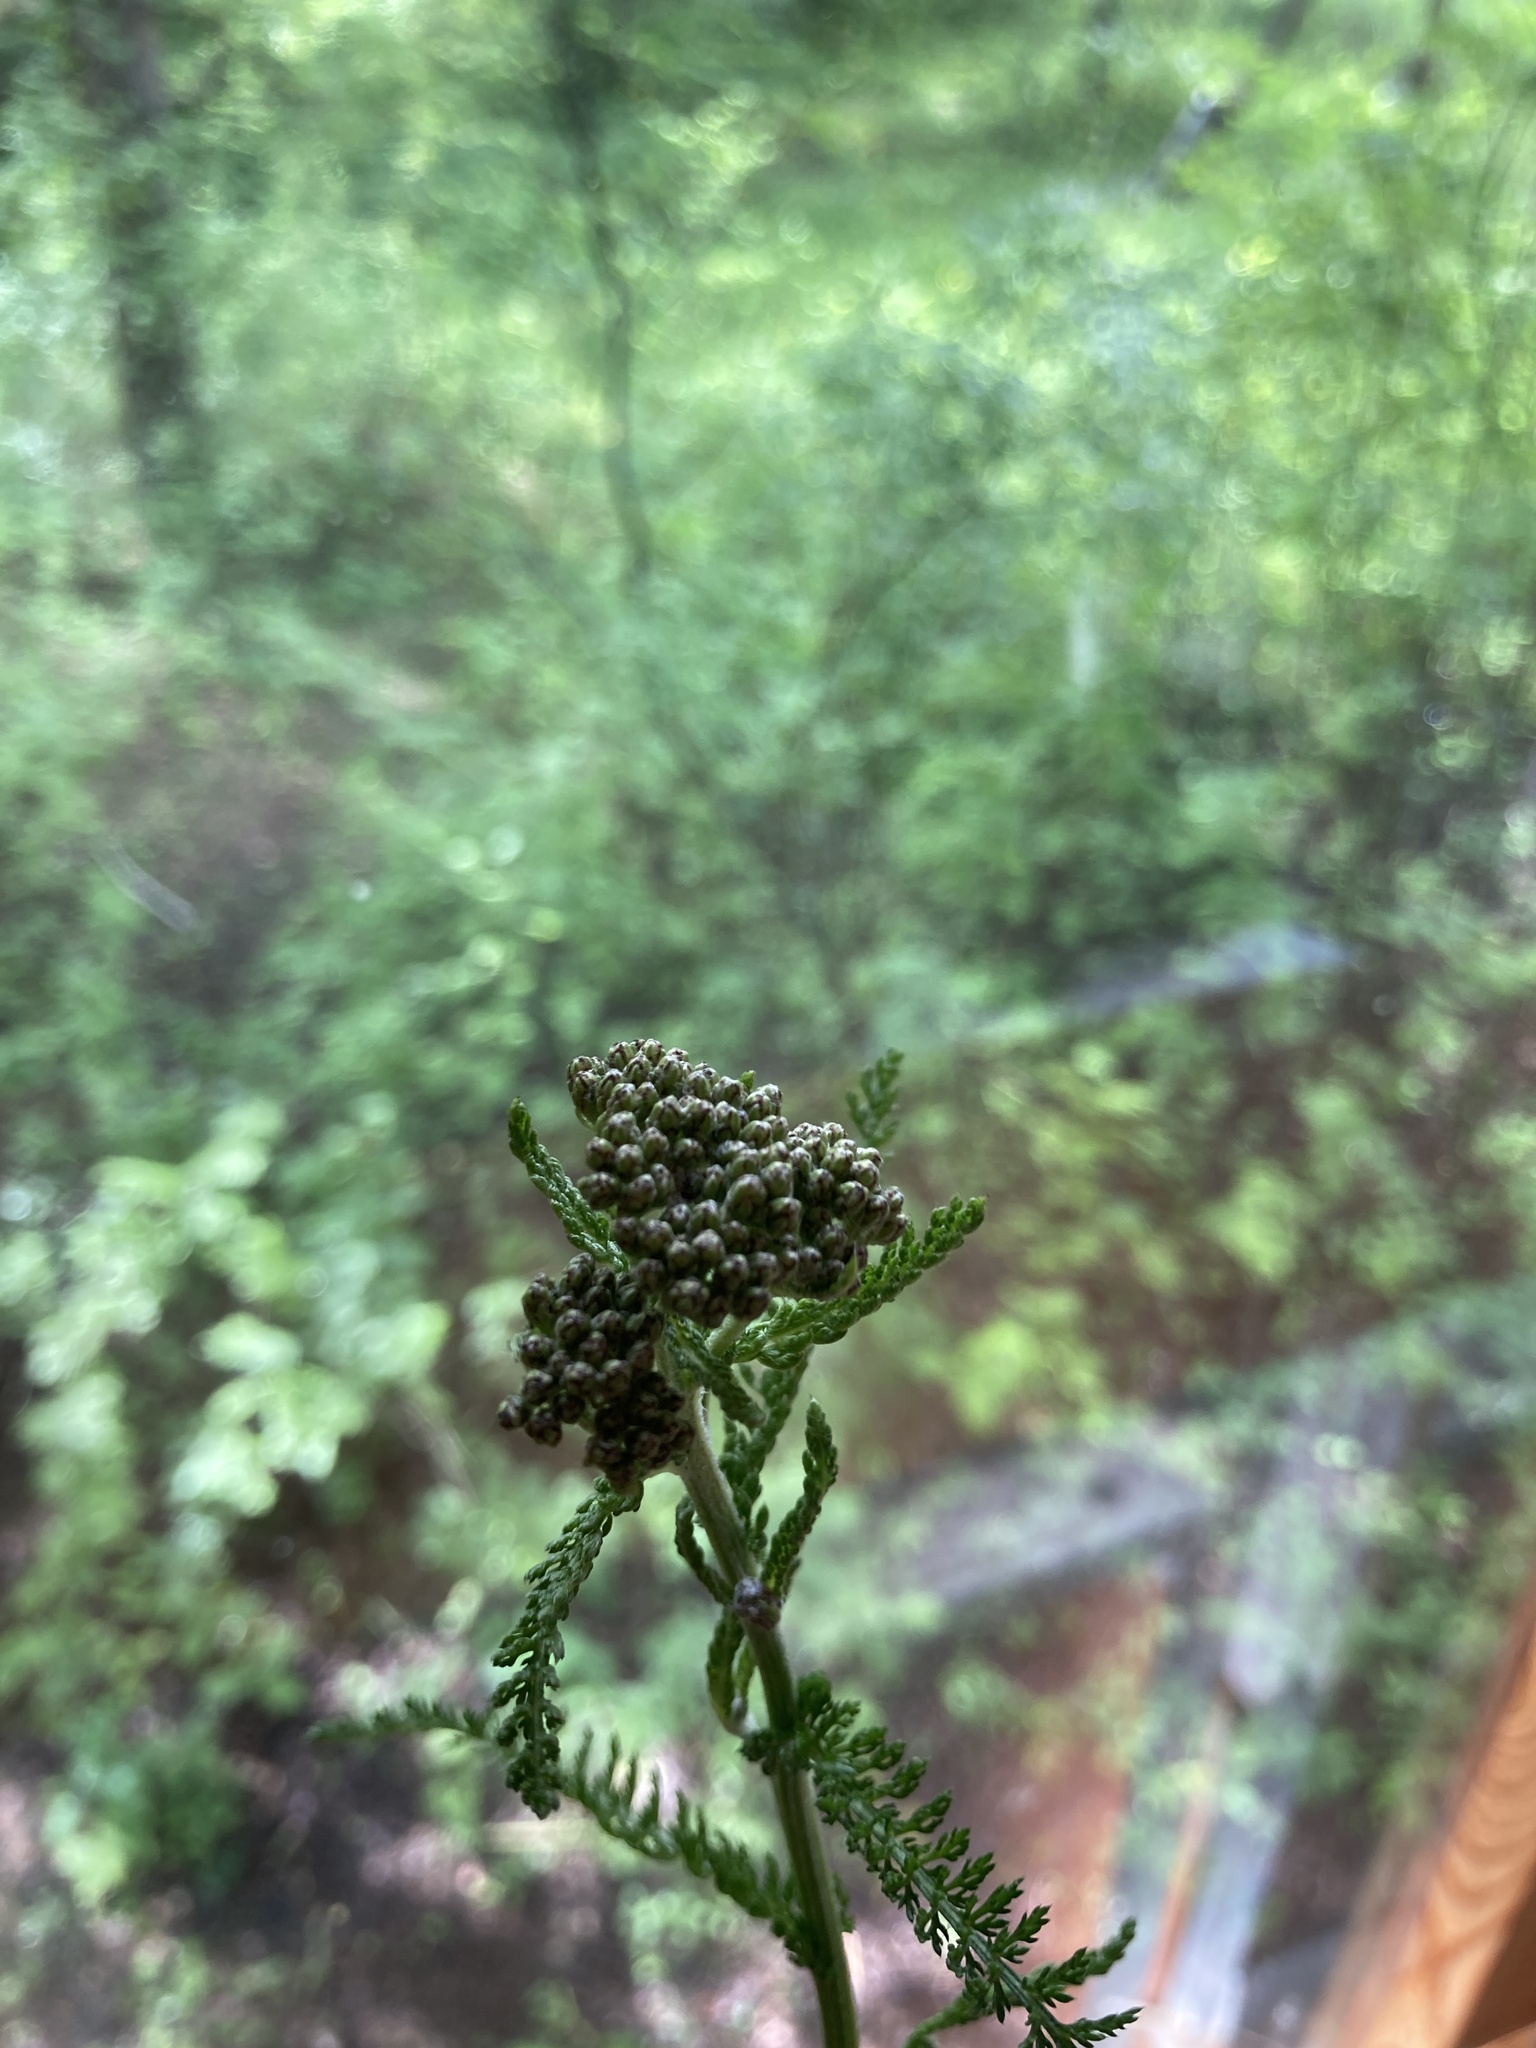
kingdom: Plantae
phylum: Tracheophyta
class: Magnoliopsida
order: Asterales
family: Asteraceae
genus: Achillea
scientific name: Achillea millefolium
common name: Yarrow
